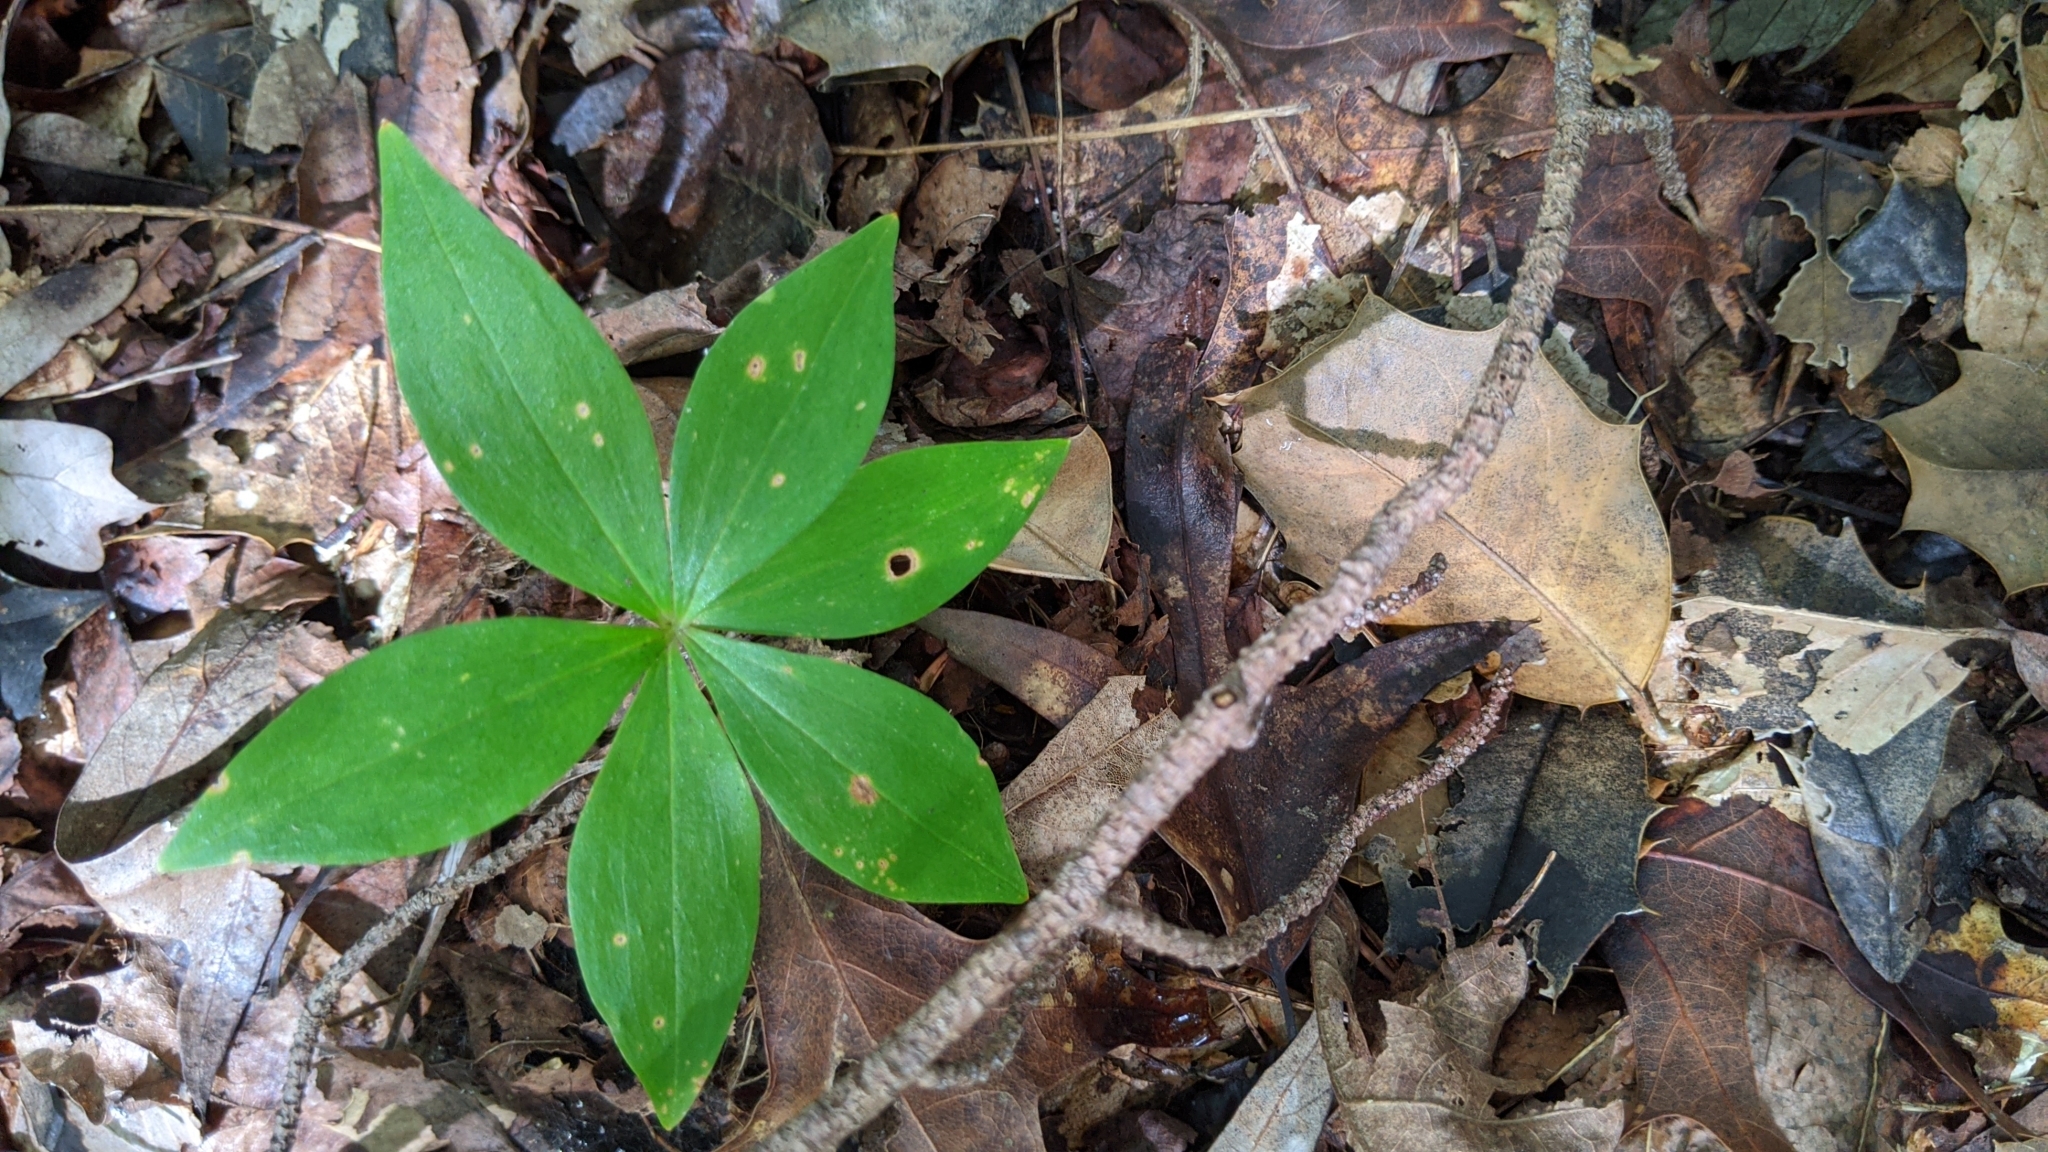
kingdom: Plantae
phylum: Tracheophyta
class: Liliopsida
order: Liliales
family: Liliaceae
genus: Medeola
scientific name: Medeola virginiana
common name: Indian cucumber-root
